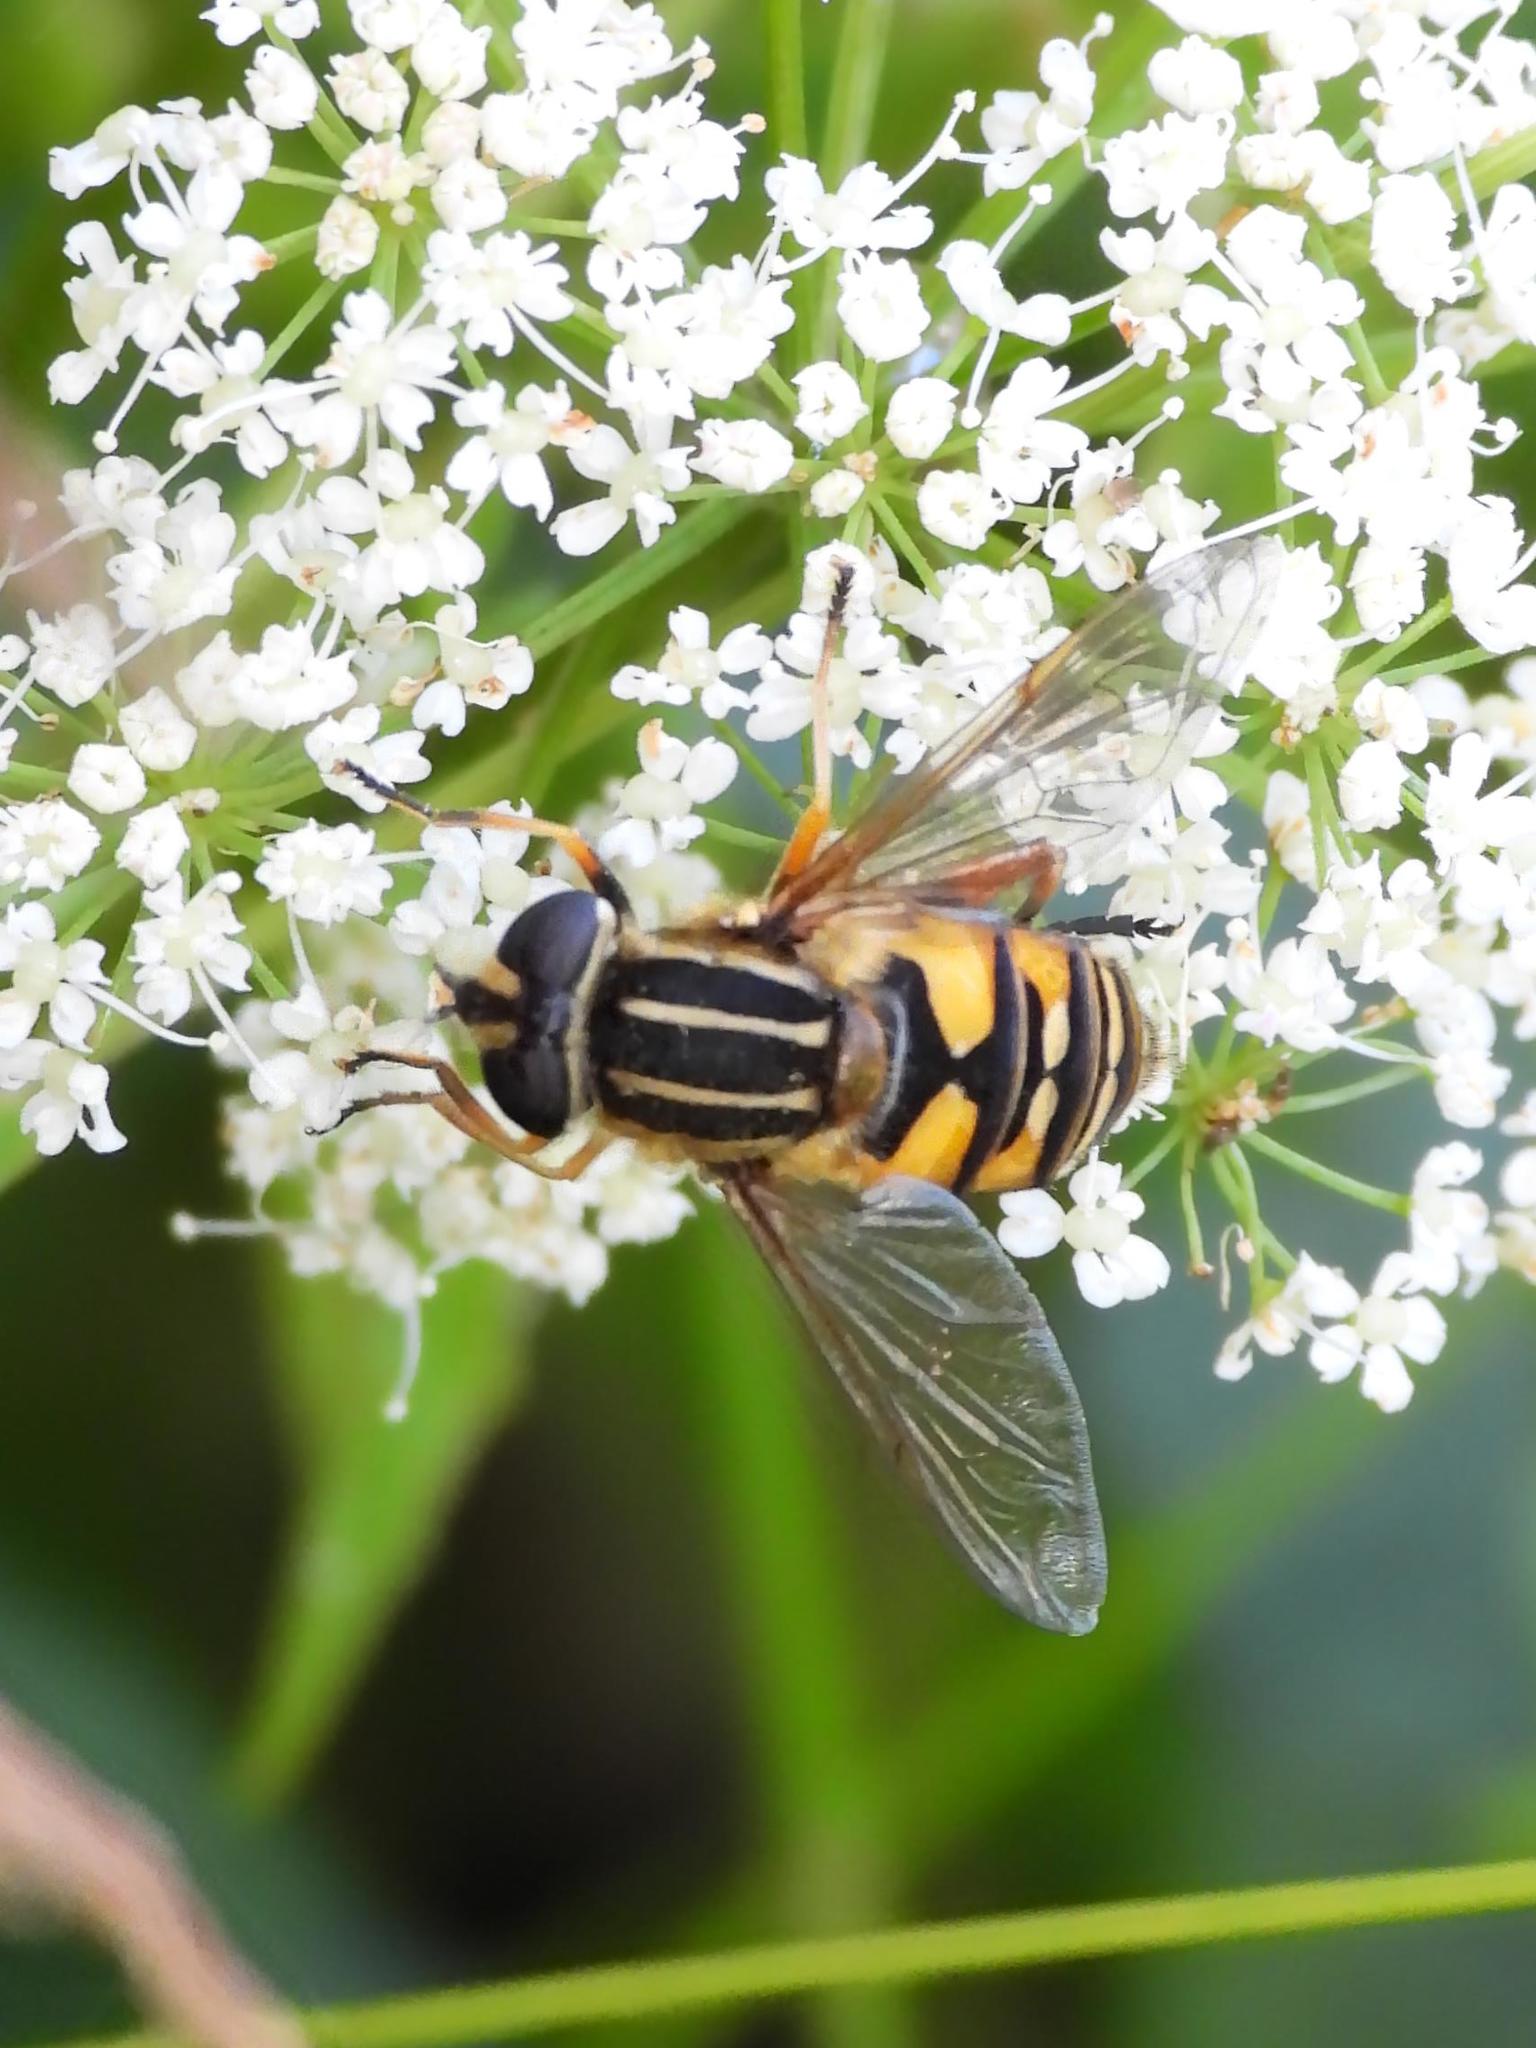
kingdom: Animalia
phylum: Arthropoda
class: Insecta
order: Diptera
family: Syrphidae
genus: Helophilus
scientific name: Helophilus pendulus
